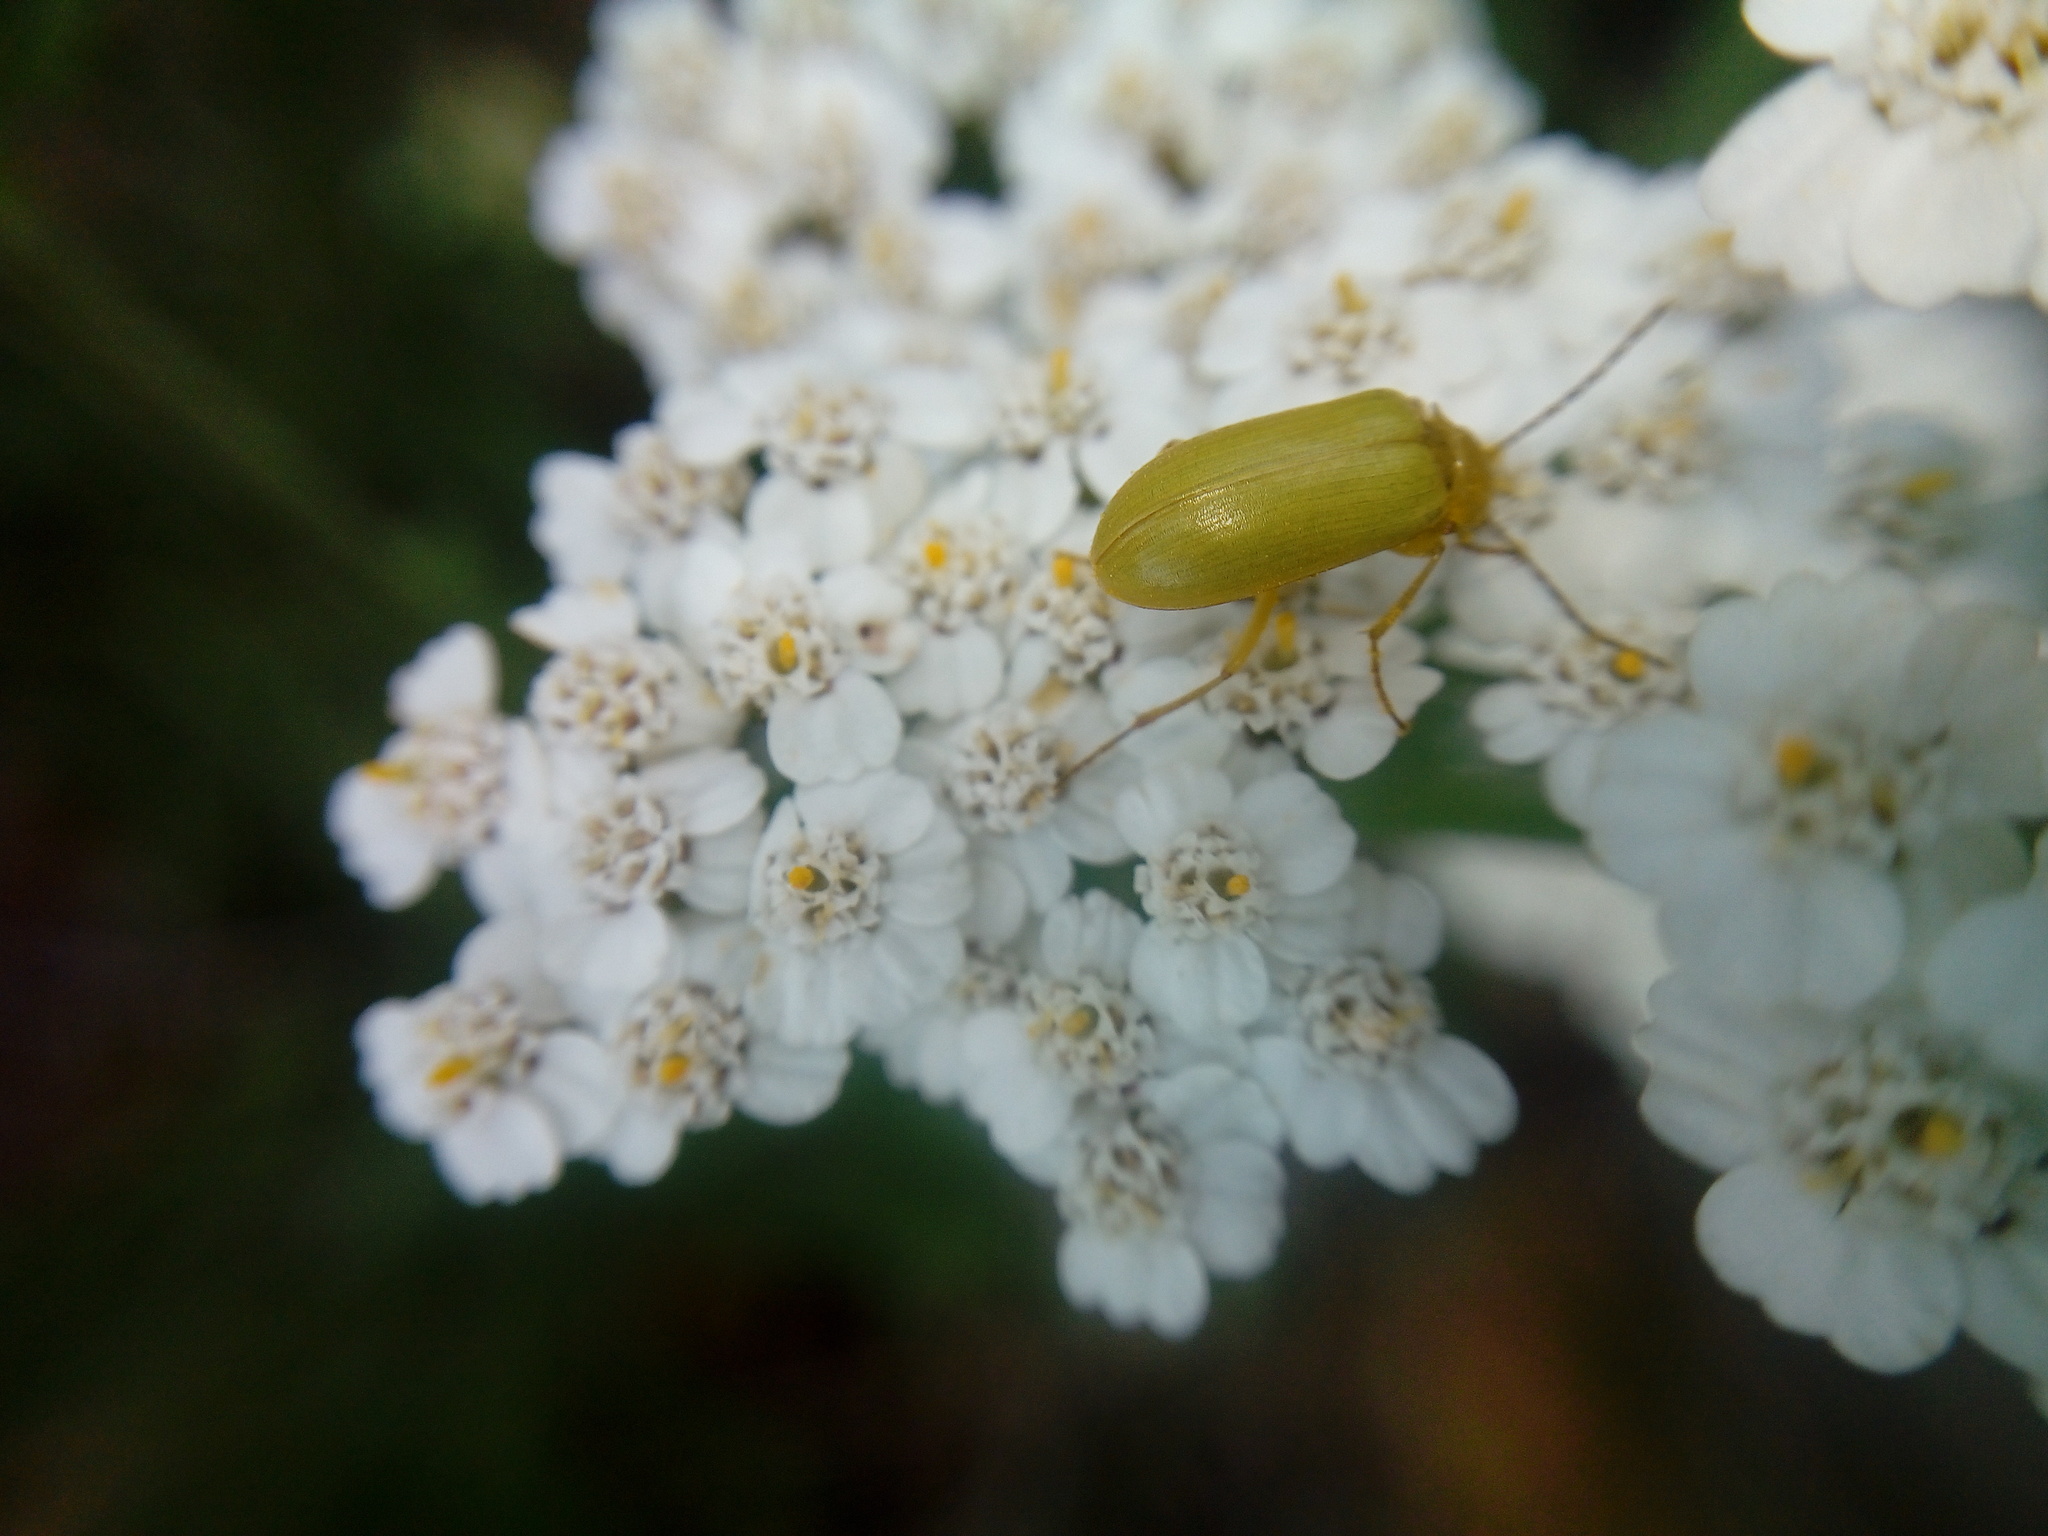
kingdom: Animalia
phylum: Arthropoda
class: Insecta
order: Coleoptera
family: Tenebrionidae
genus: Cteniopus
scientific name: Cteniopus sulphureus
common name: Sulphur beetle
